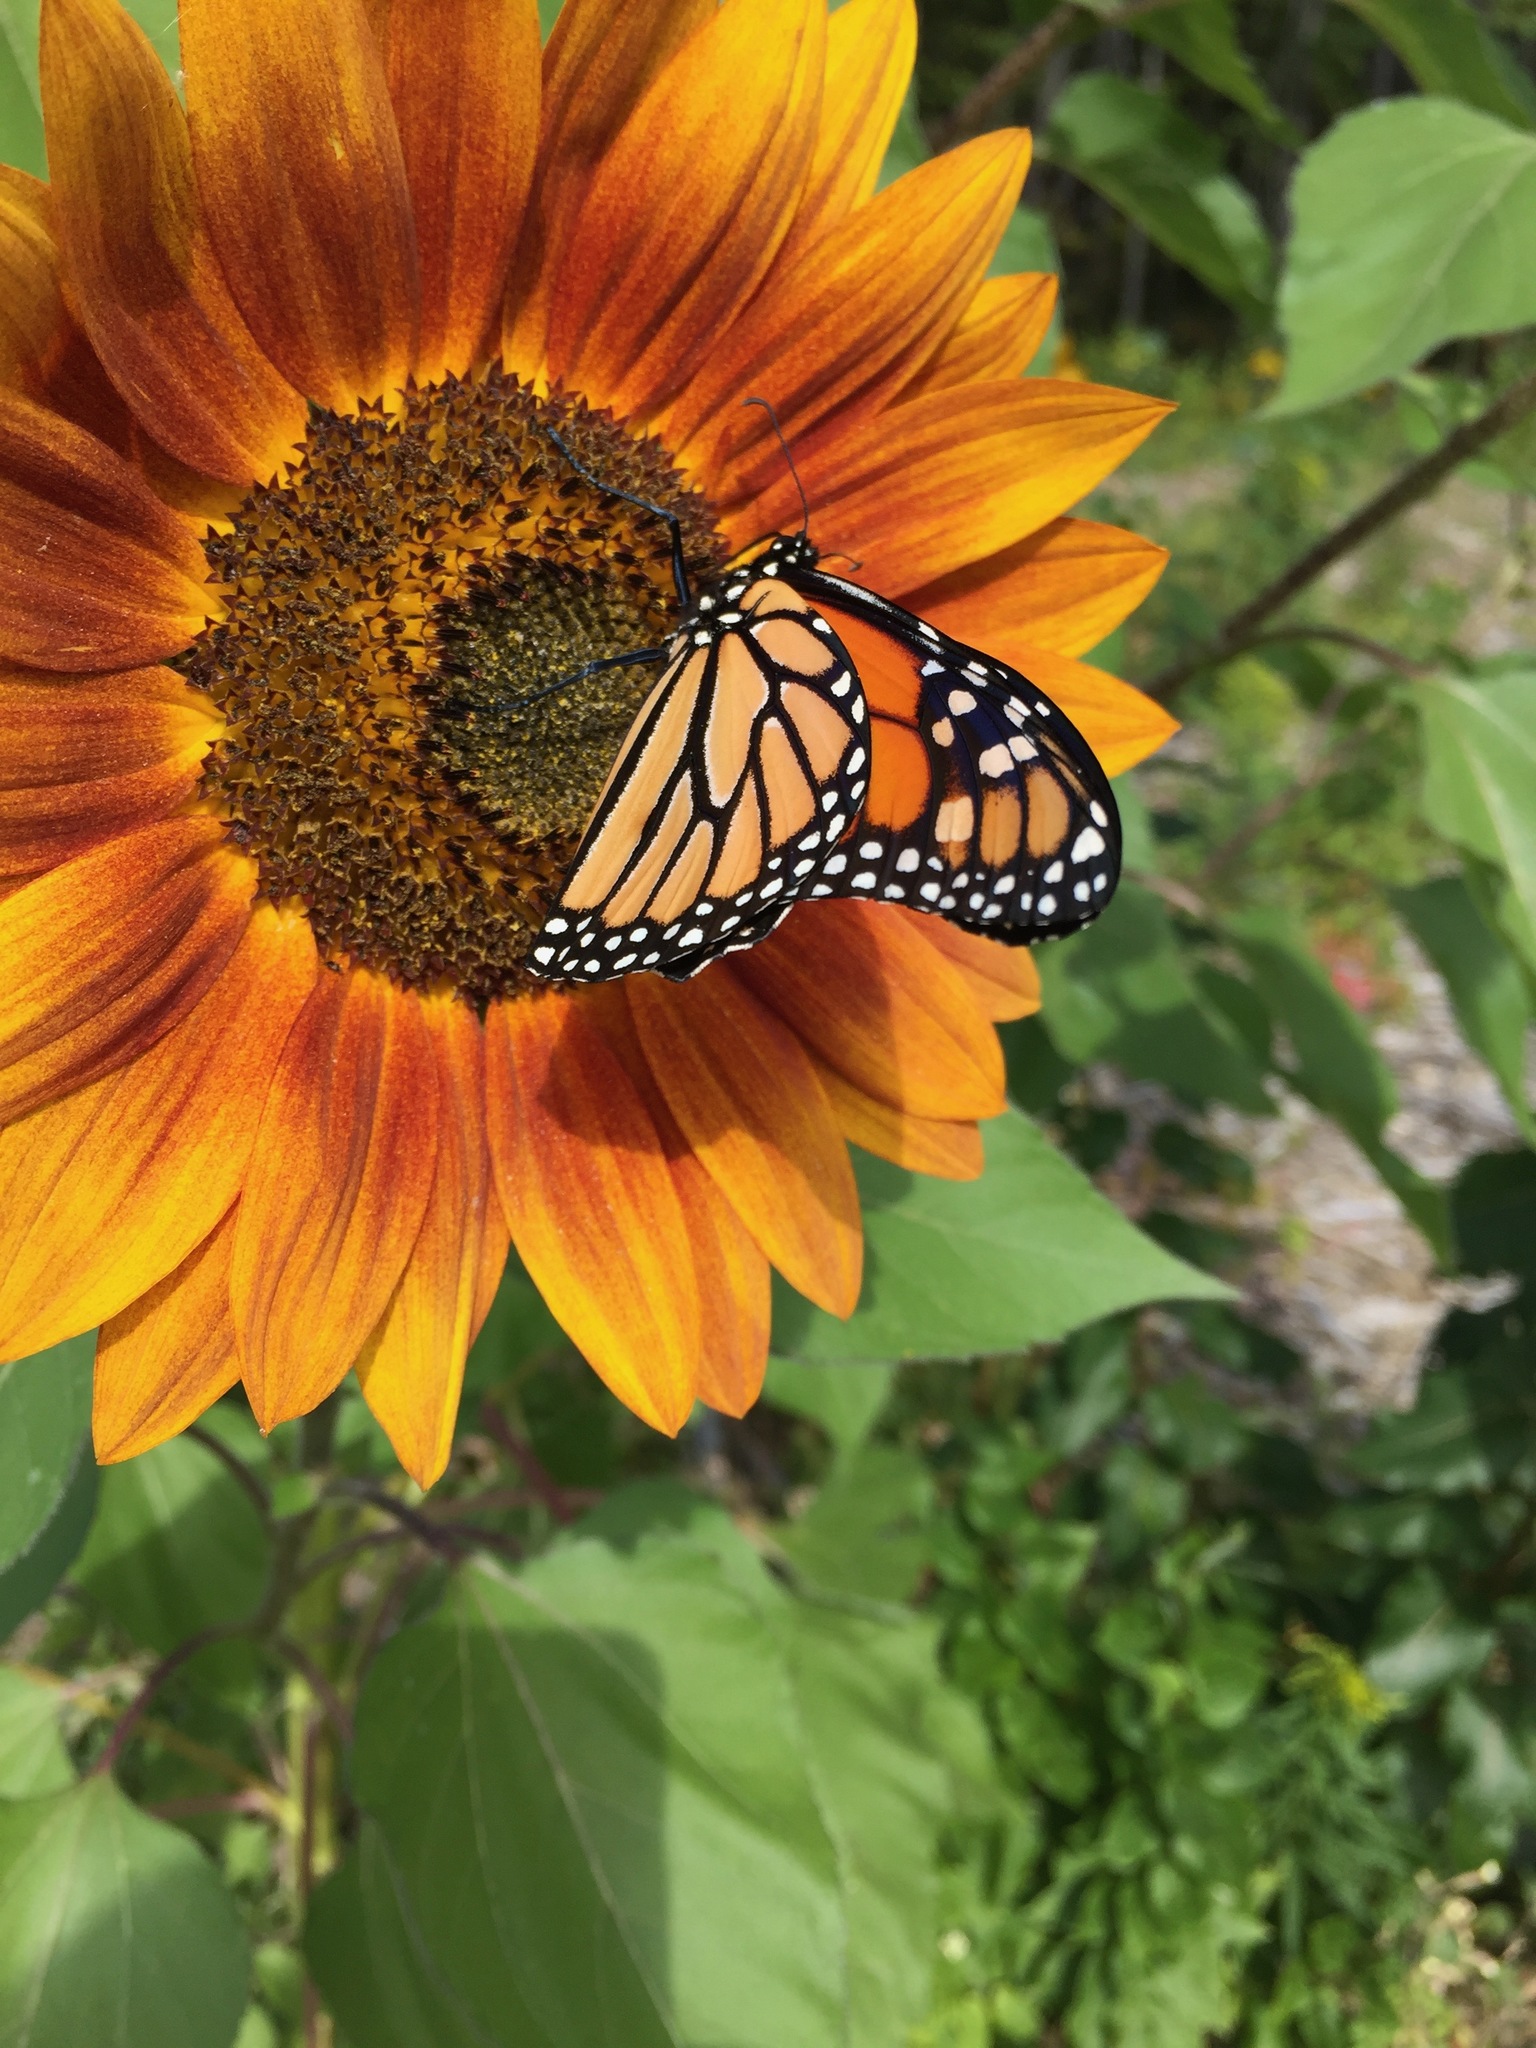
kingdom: Plantae
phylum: Tracheophyta
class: Magnoliopsida
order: Asterales
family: Asteraceae
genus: Helianthus
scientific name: Helianthus annuus
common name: Sunflower
